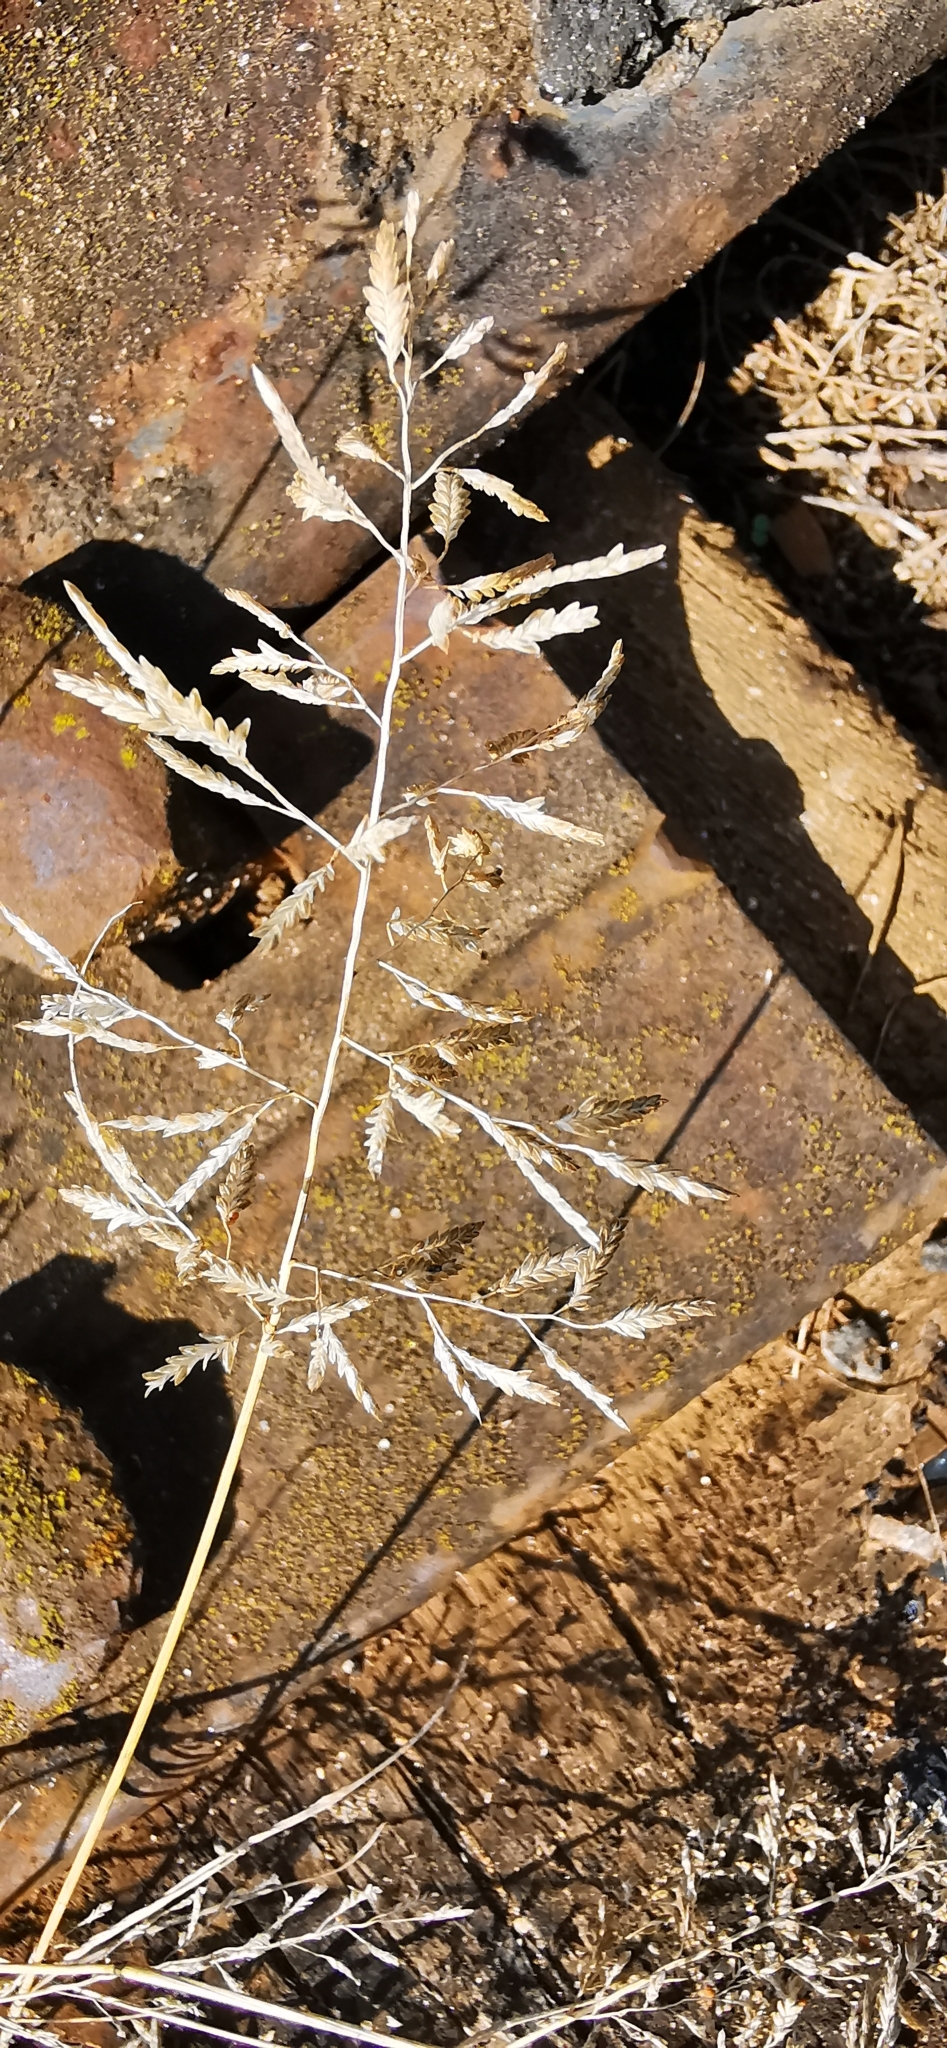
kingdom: Plantae
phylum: Tracheophyta
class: Liliopsida
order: Poales
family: Poaceae
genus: Eragrostis
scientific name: Eragrostis minor
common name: Small love-grass
